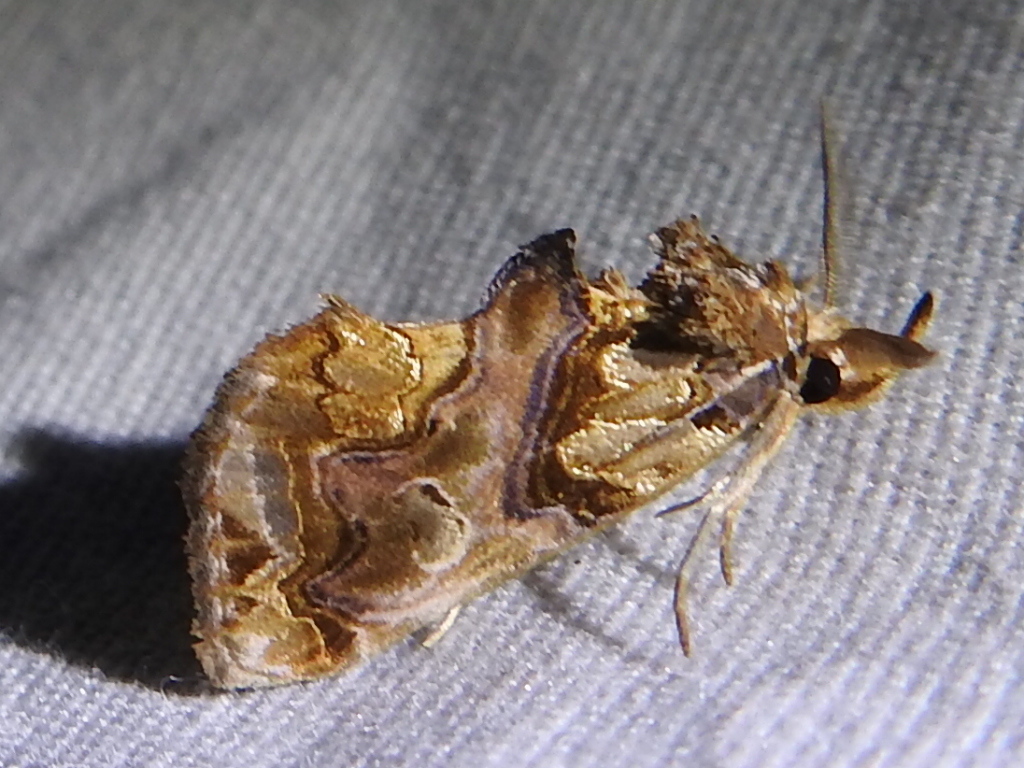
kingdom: Animalia
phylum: Arthropoda
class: Insecta
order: Lepidoptera
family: Erebidae
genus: Plusiodonta
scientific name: Plusiodonta compressipalpis
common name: Moonseed moth
